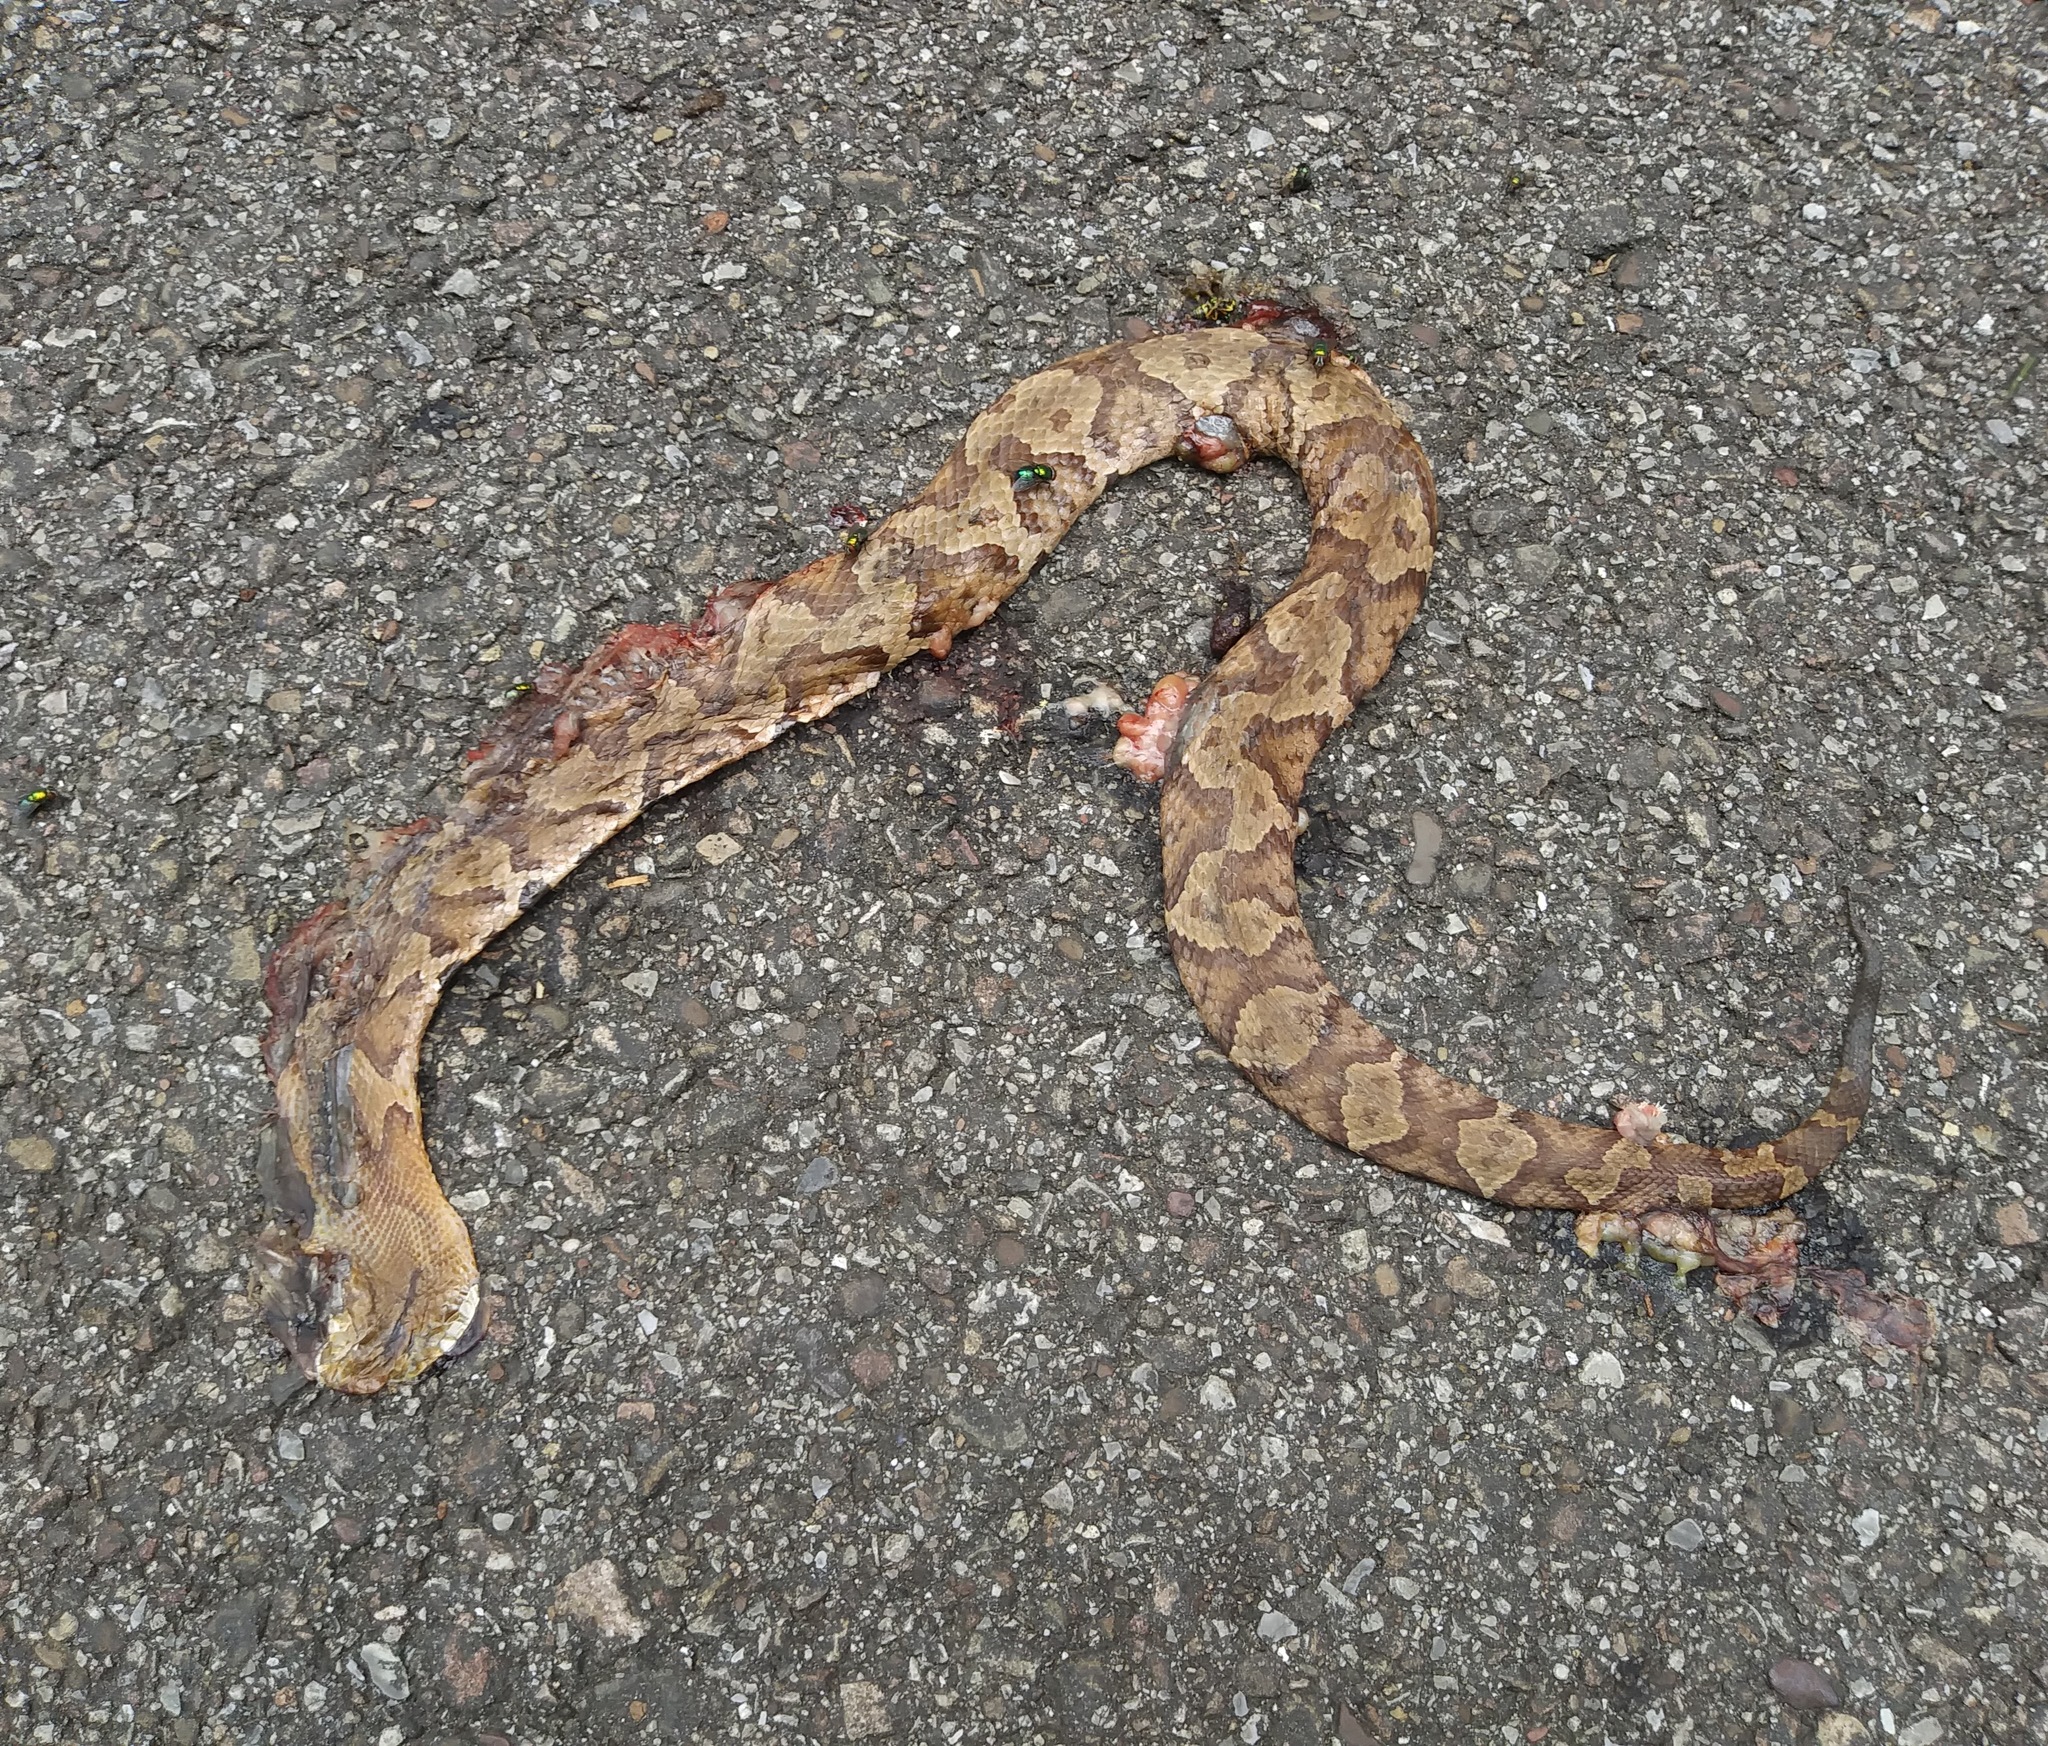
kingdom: Animalia
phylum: Chordata
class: Squamata
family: Viperidae
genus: Agkistrodon
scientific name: Agkistrodon contortrix
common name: Northern copperhead
